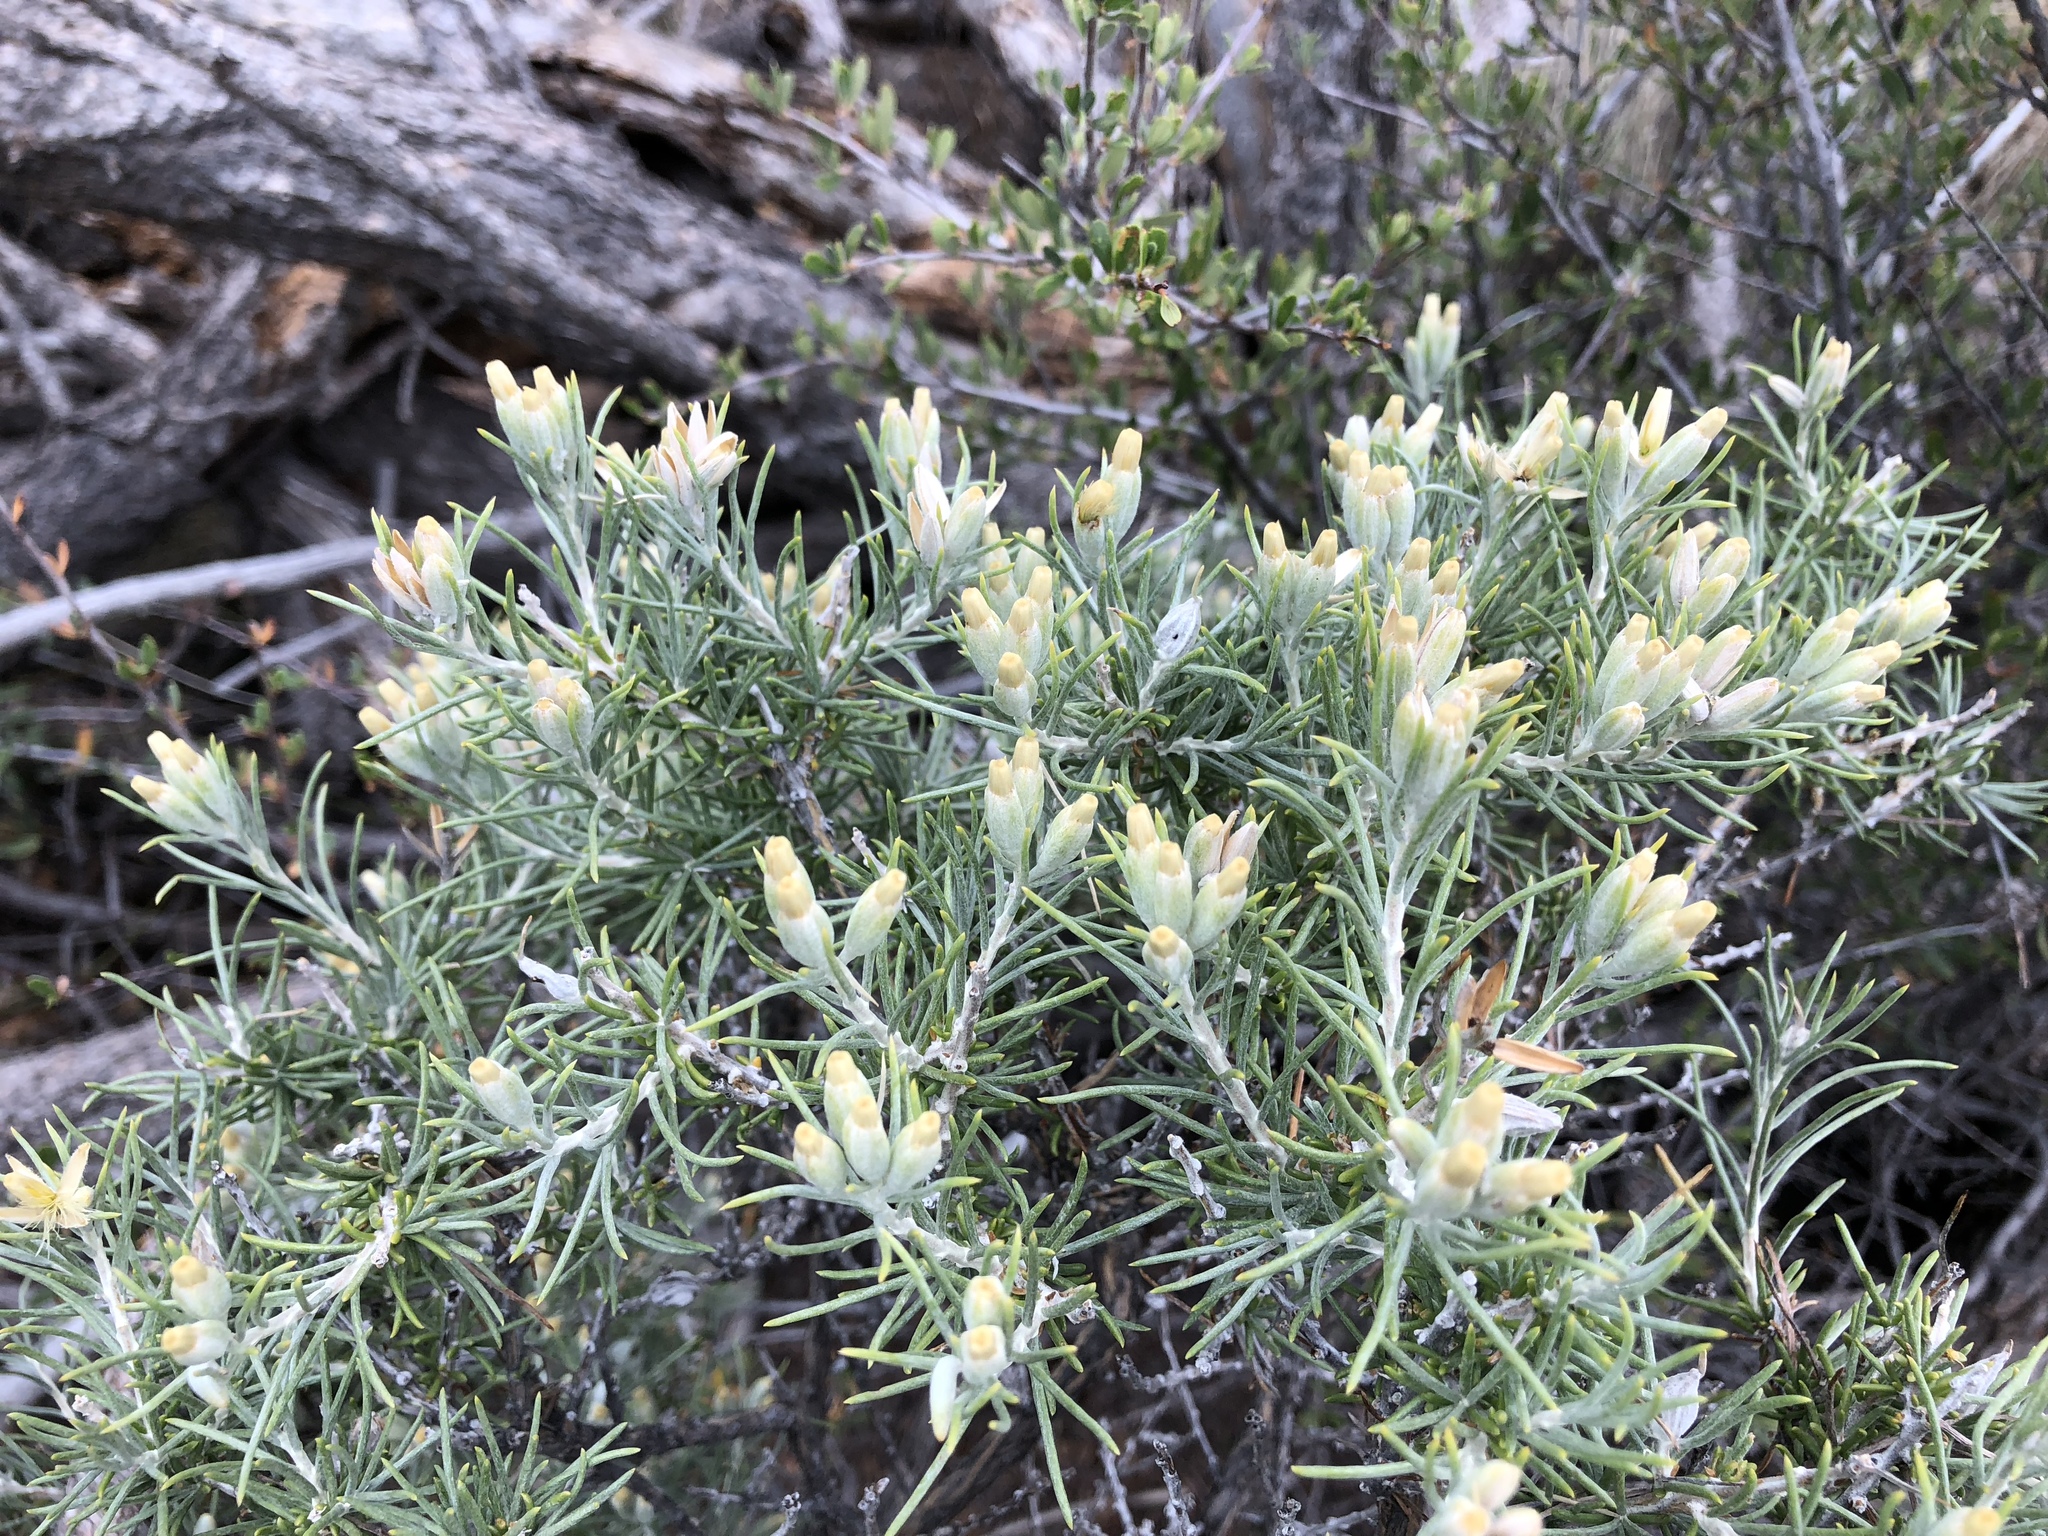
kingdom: Plantae
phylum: Tracheophyta
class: Magnoliopsida
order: Asterales
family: Asteraceae
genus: Tetradymia
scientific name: Tetradymia filifolia
